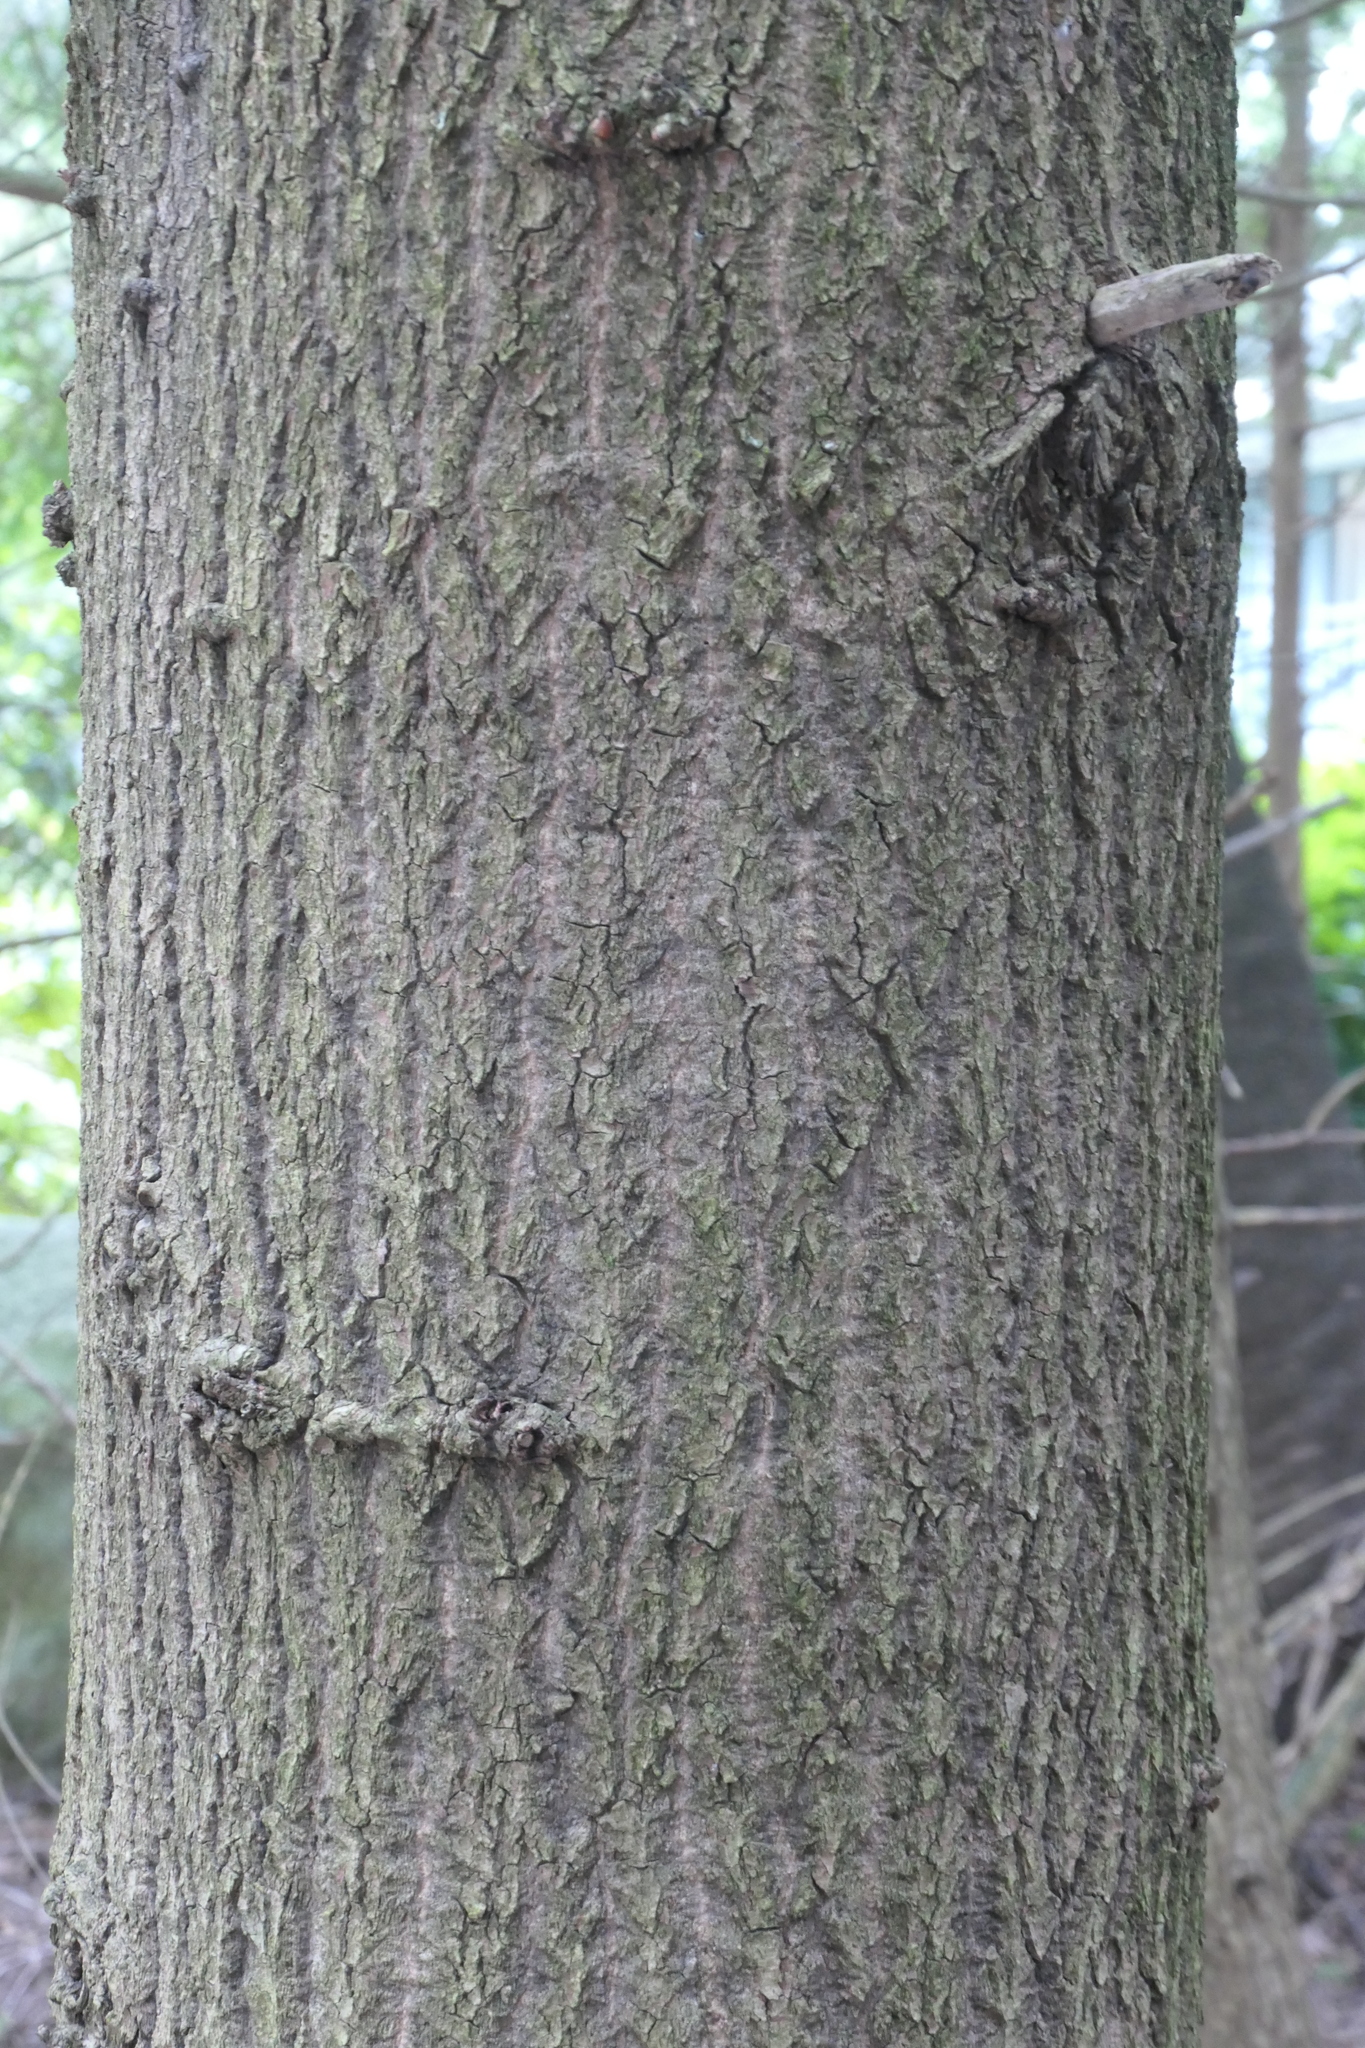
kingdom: Plantae
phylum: Tracheophyta
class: Pinopsida
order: Pinales
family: Pinaceae
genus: Tsuga
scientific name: Tsuga heterophylla
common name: Western hemlock
